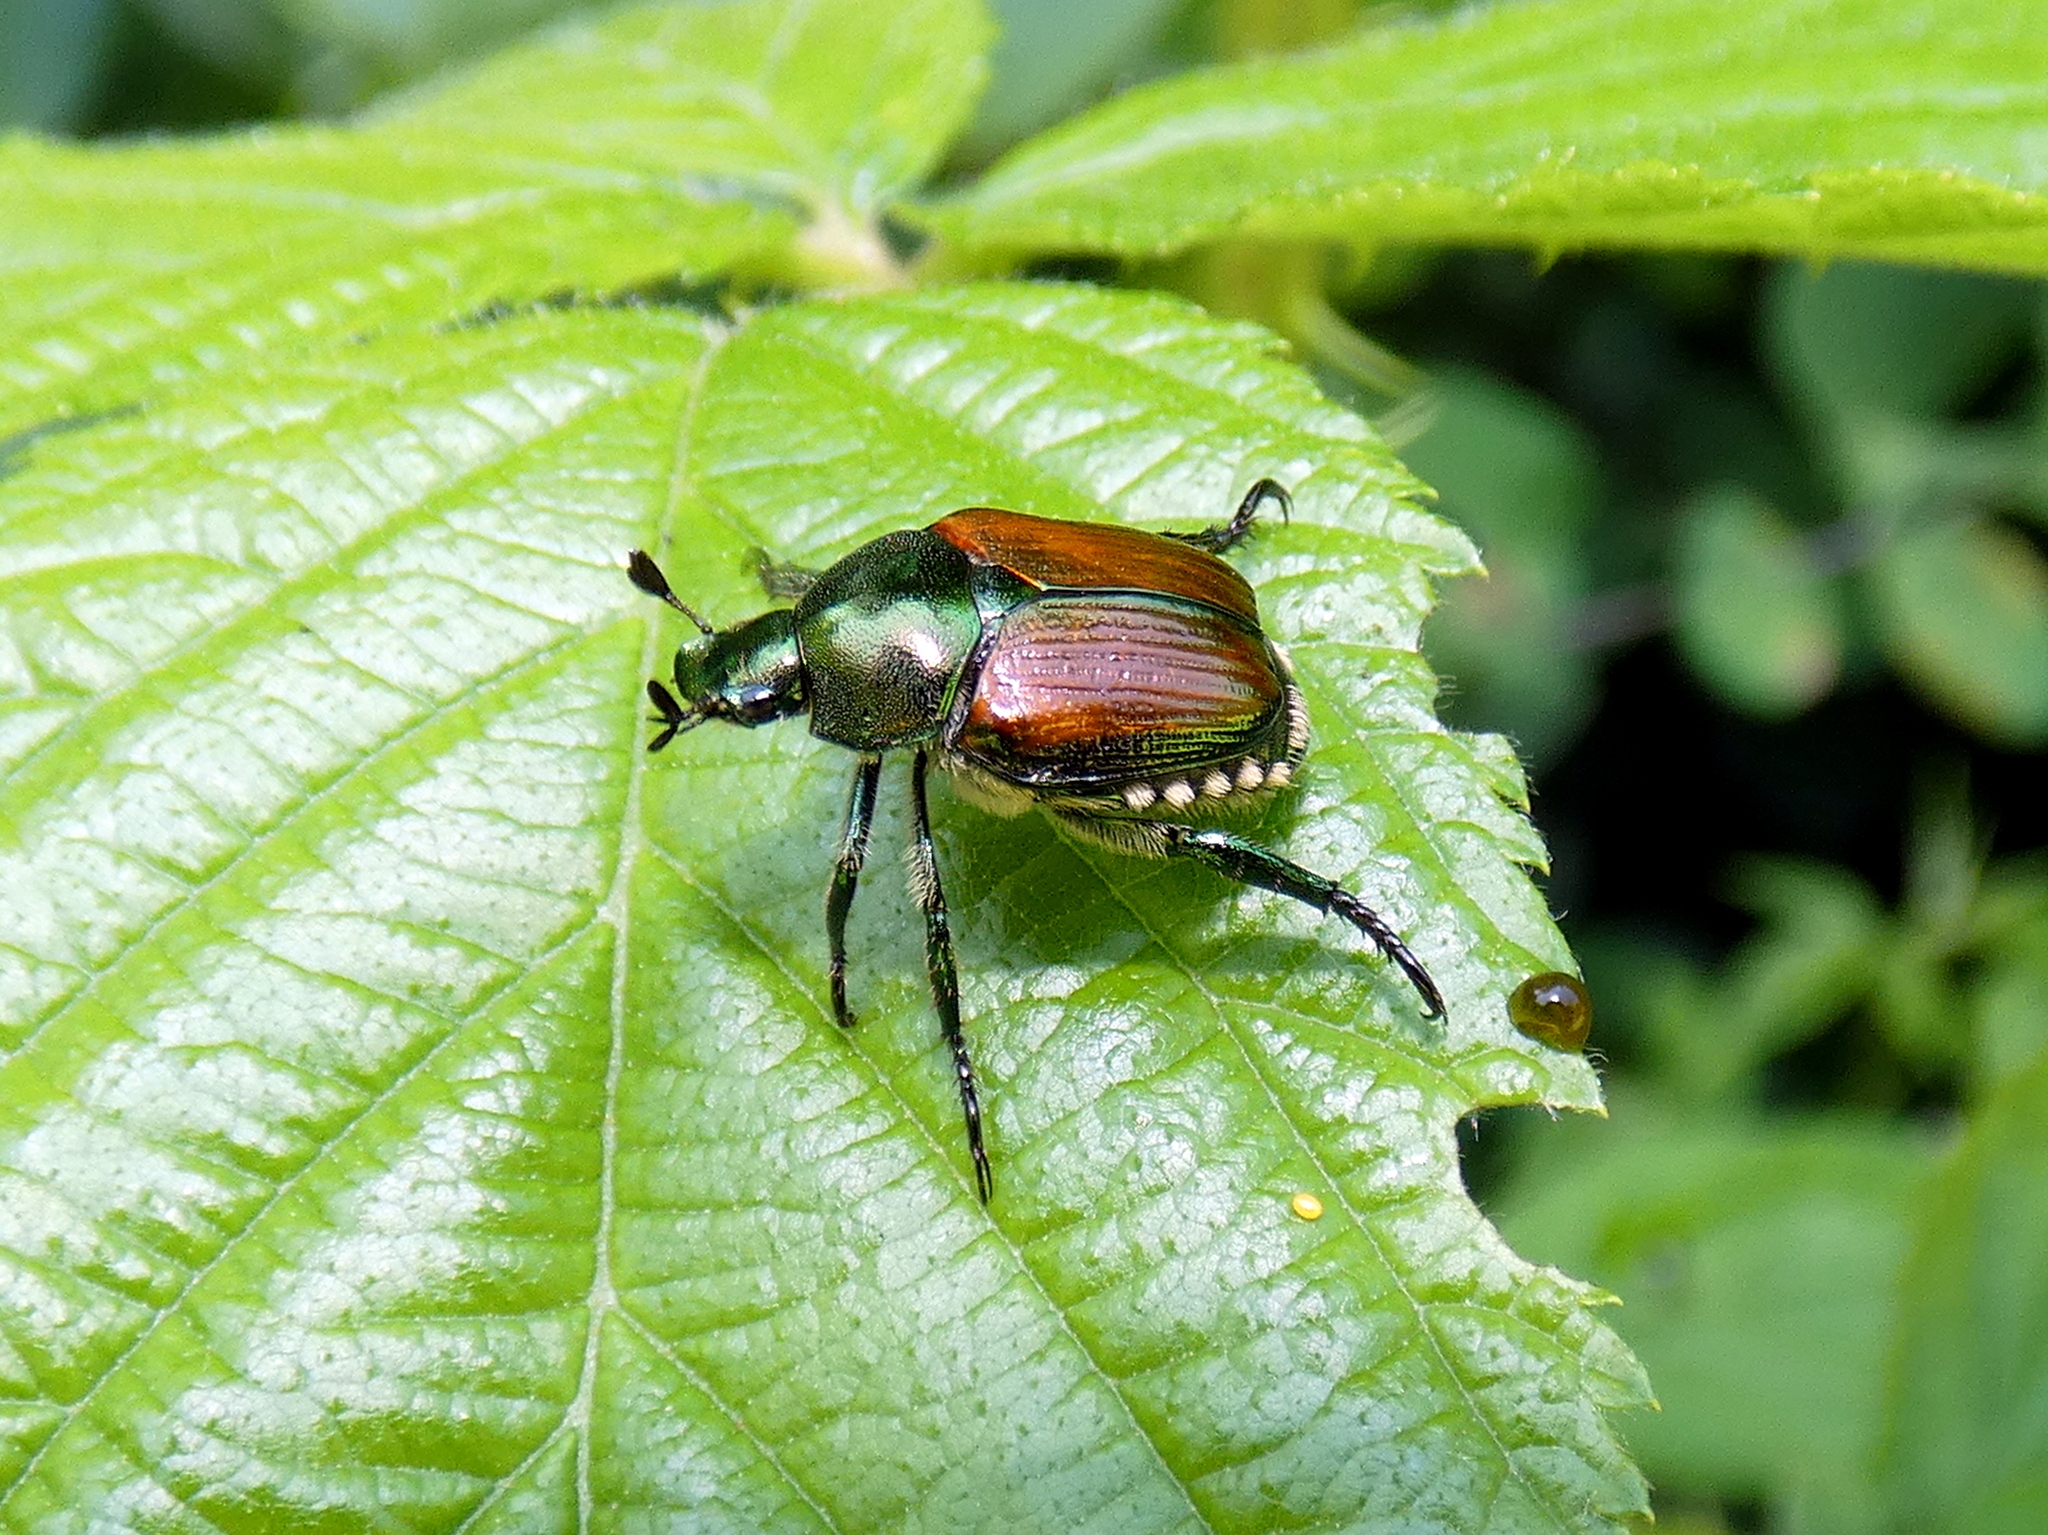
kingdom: Animalia
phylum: Arthropoda
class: Insecta
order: Coleoptera
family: Scarabaeidae
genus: Popillia
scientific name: Popillia japonica
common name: Japanese beetle
